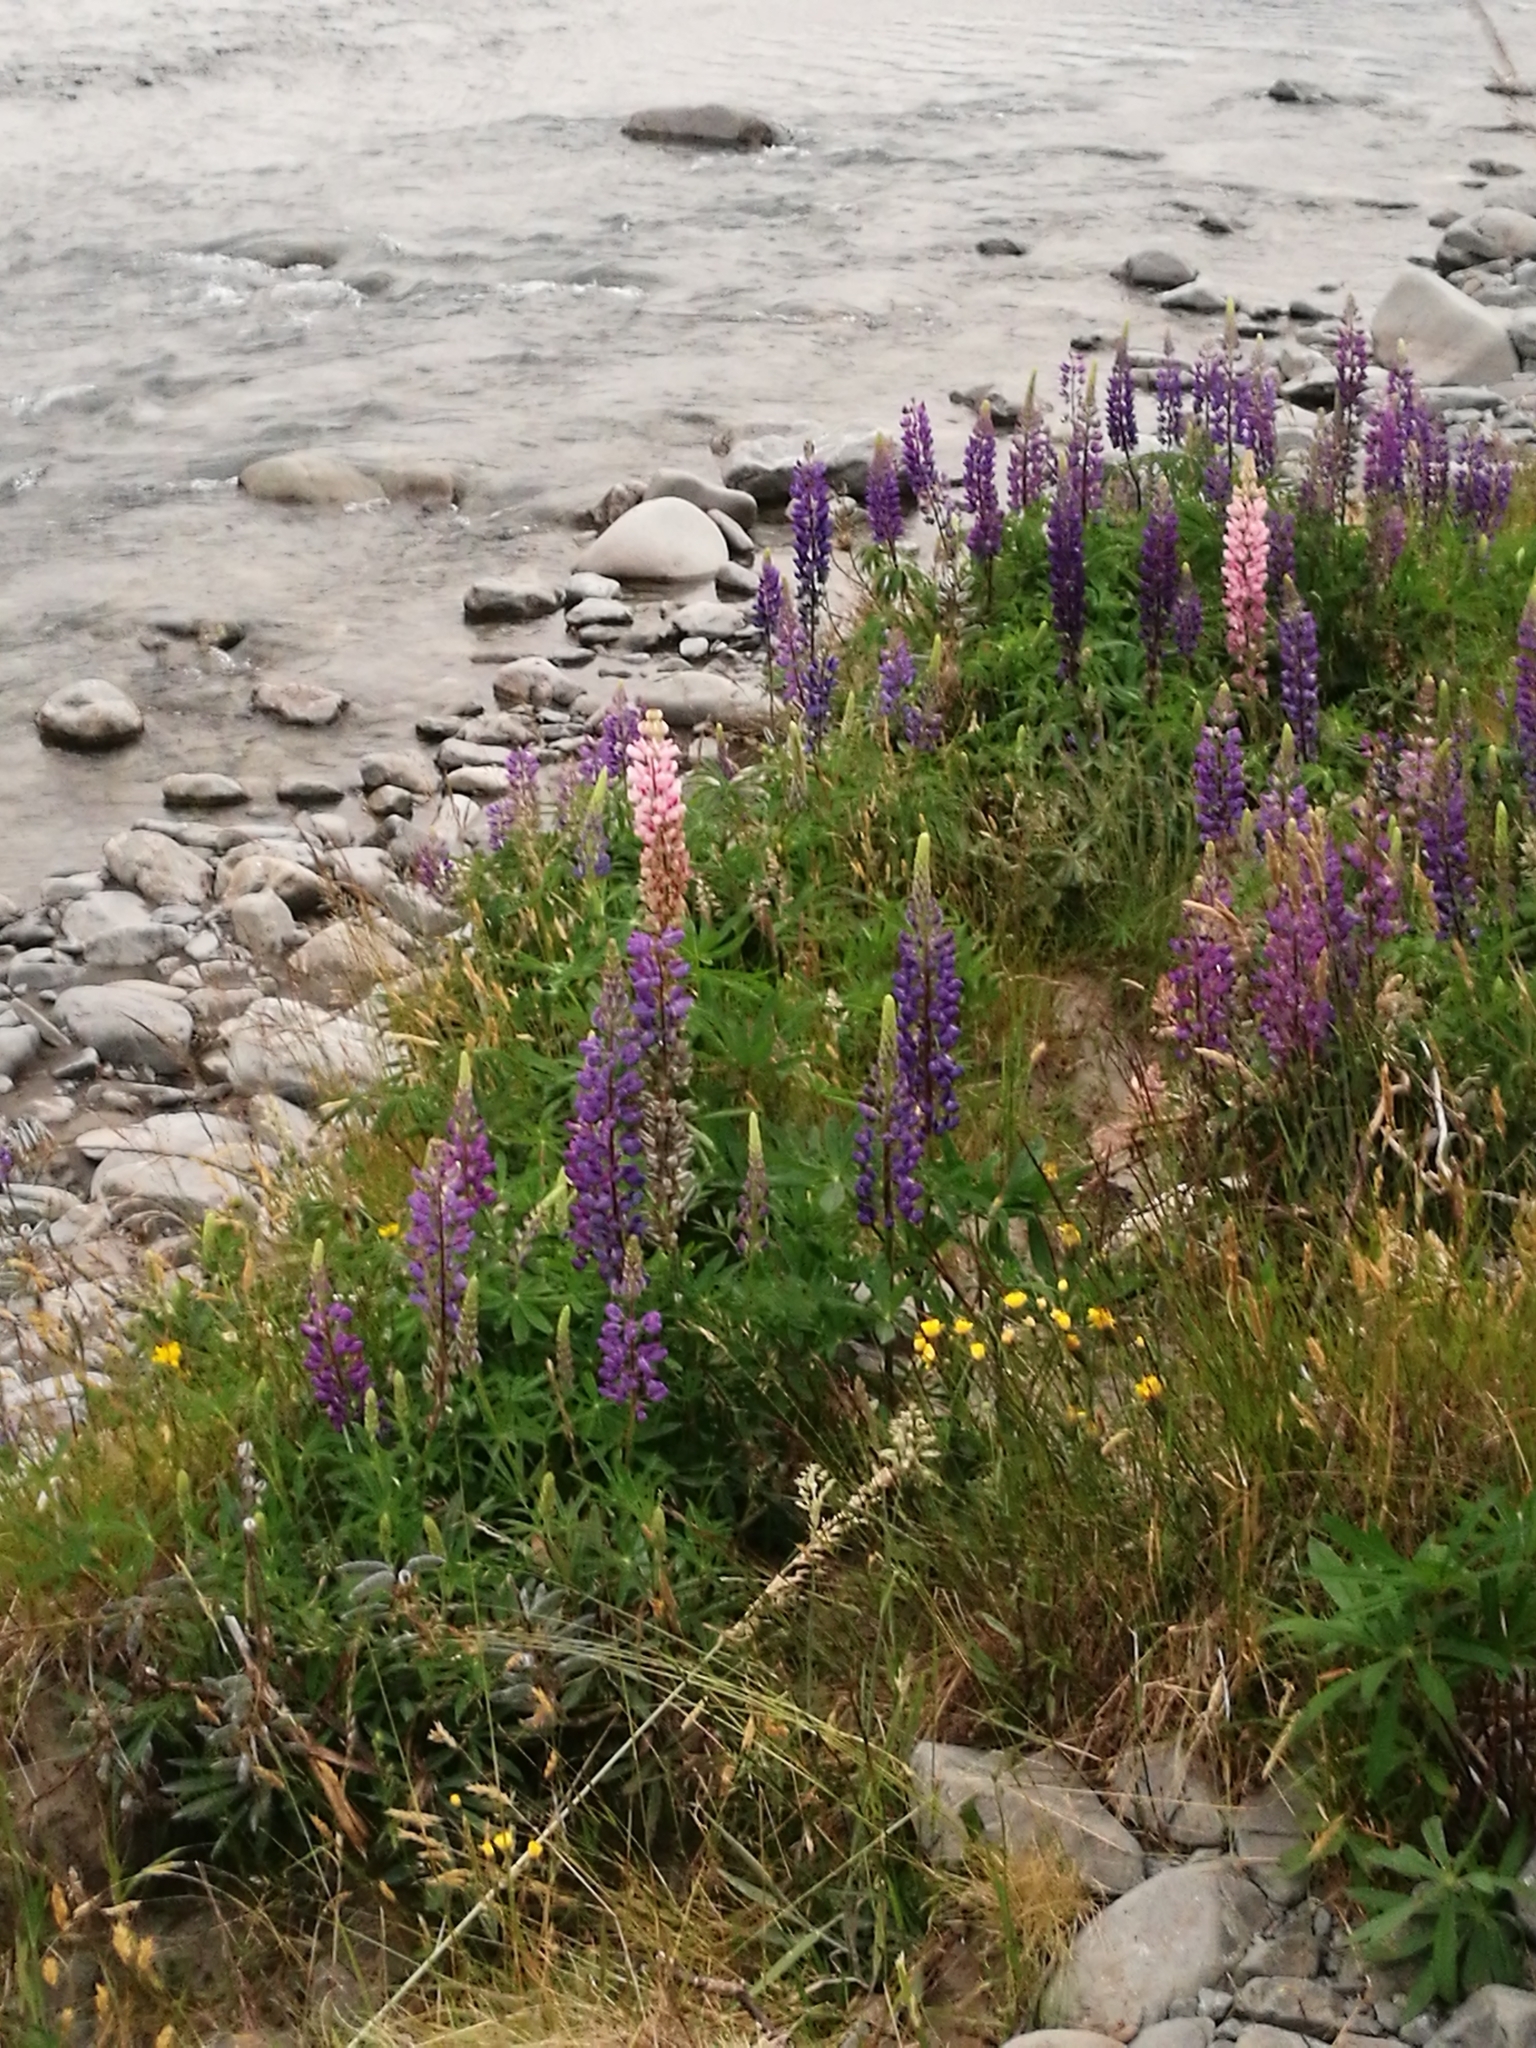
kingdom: Plantae
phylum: Tracheophyta
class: Magnoliopsida
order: Fabales
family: Fabaceae
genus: Lupinus
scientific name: Lupinus polyphyllus
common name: Garden lupin
